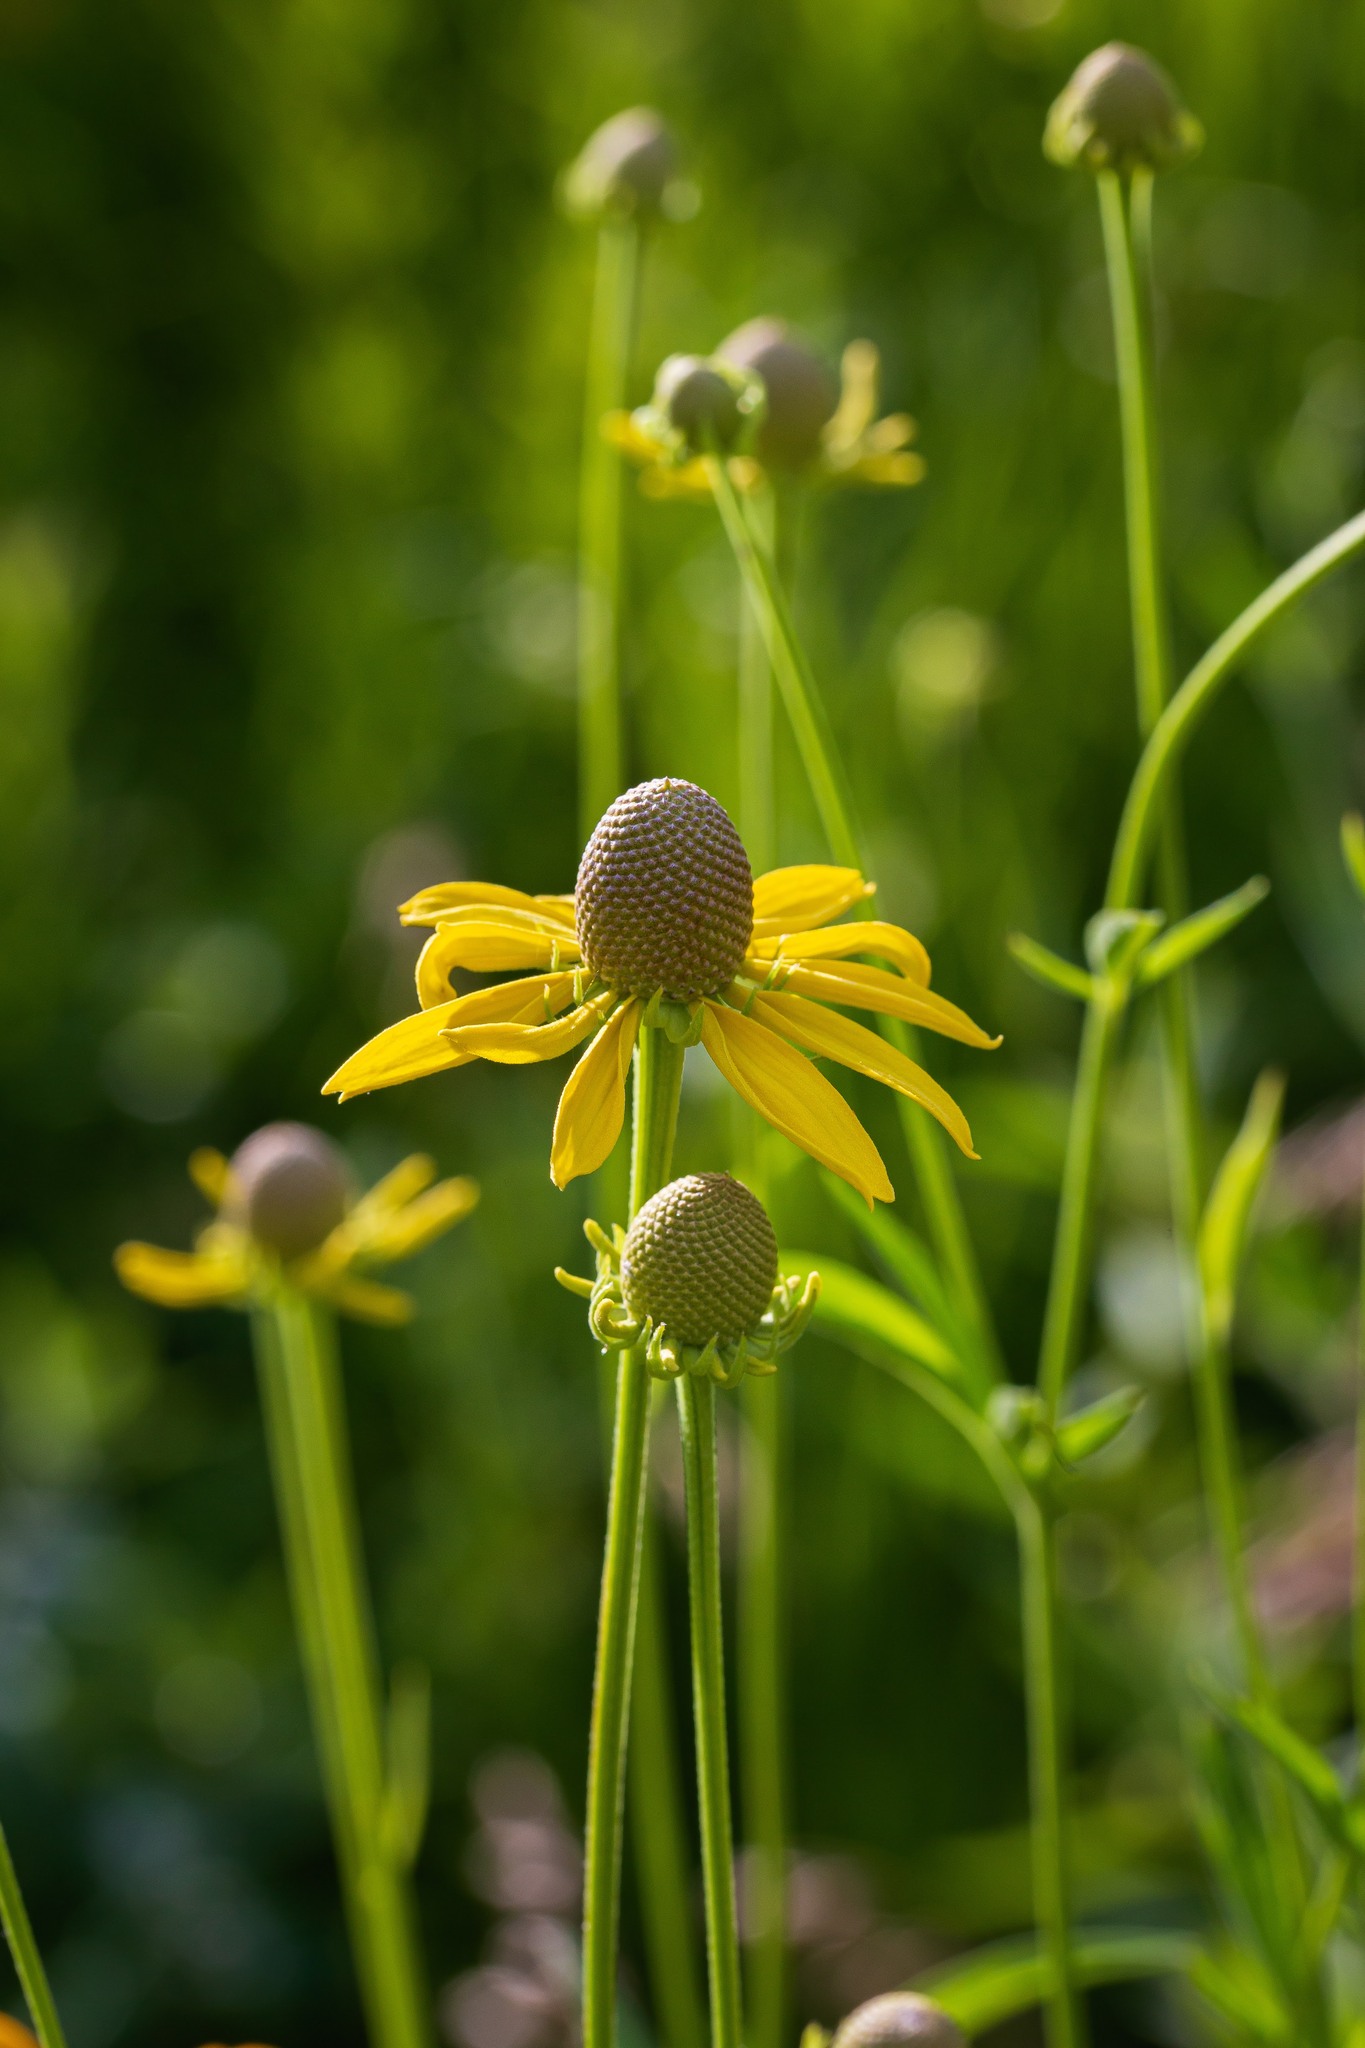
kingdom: Plantae
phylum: Tracheophyta
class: Magnoliopsida
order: Asterales
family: Asteraceae
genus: Ratibida
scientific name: Ratibida pinnata
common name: Drooping prairie-coneflower
